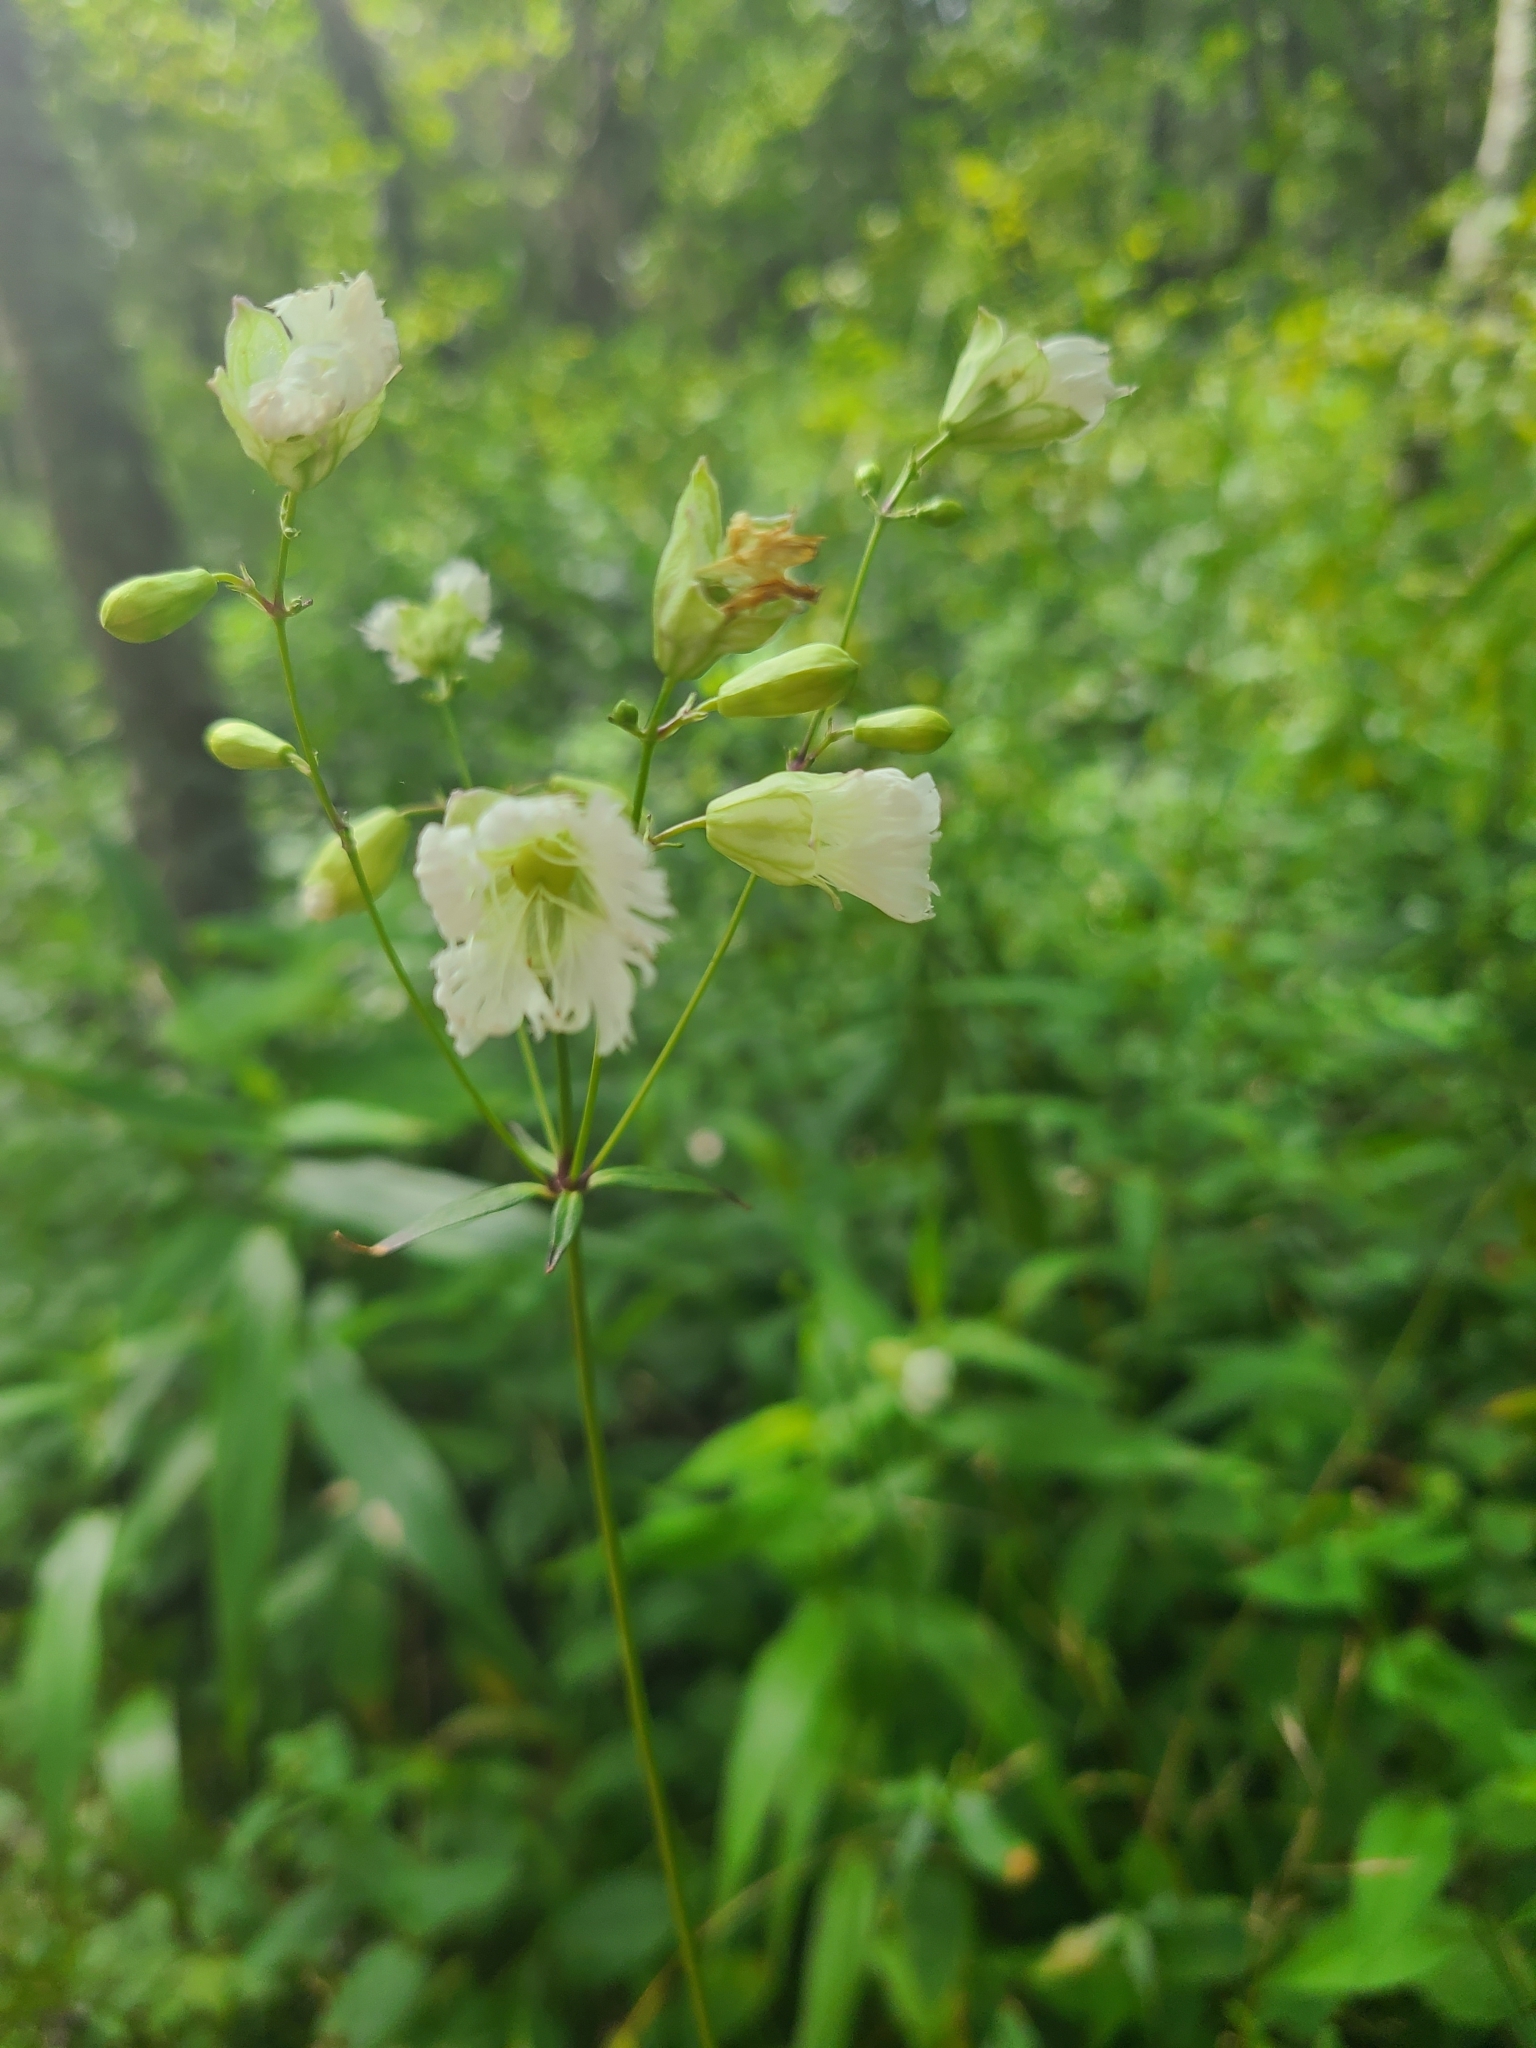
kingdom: Plantae
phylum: Tracheophyta
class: Magnoliopsida
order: Caryophyllales
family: Caryophyllaceae
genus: Silene
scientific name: Silene stellata
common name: Starry campion
